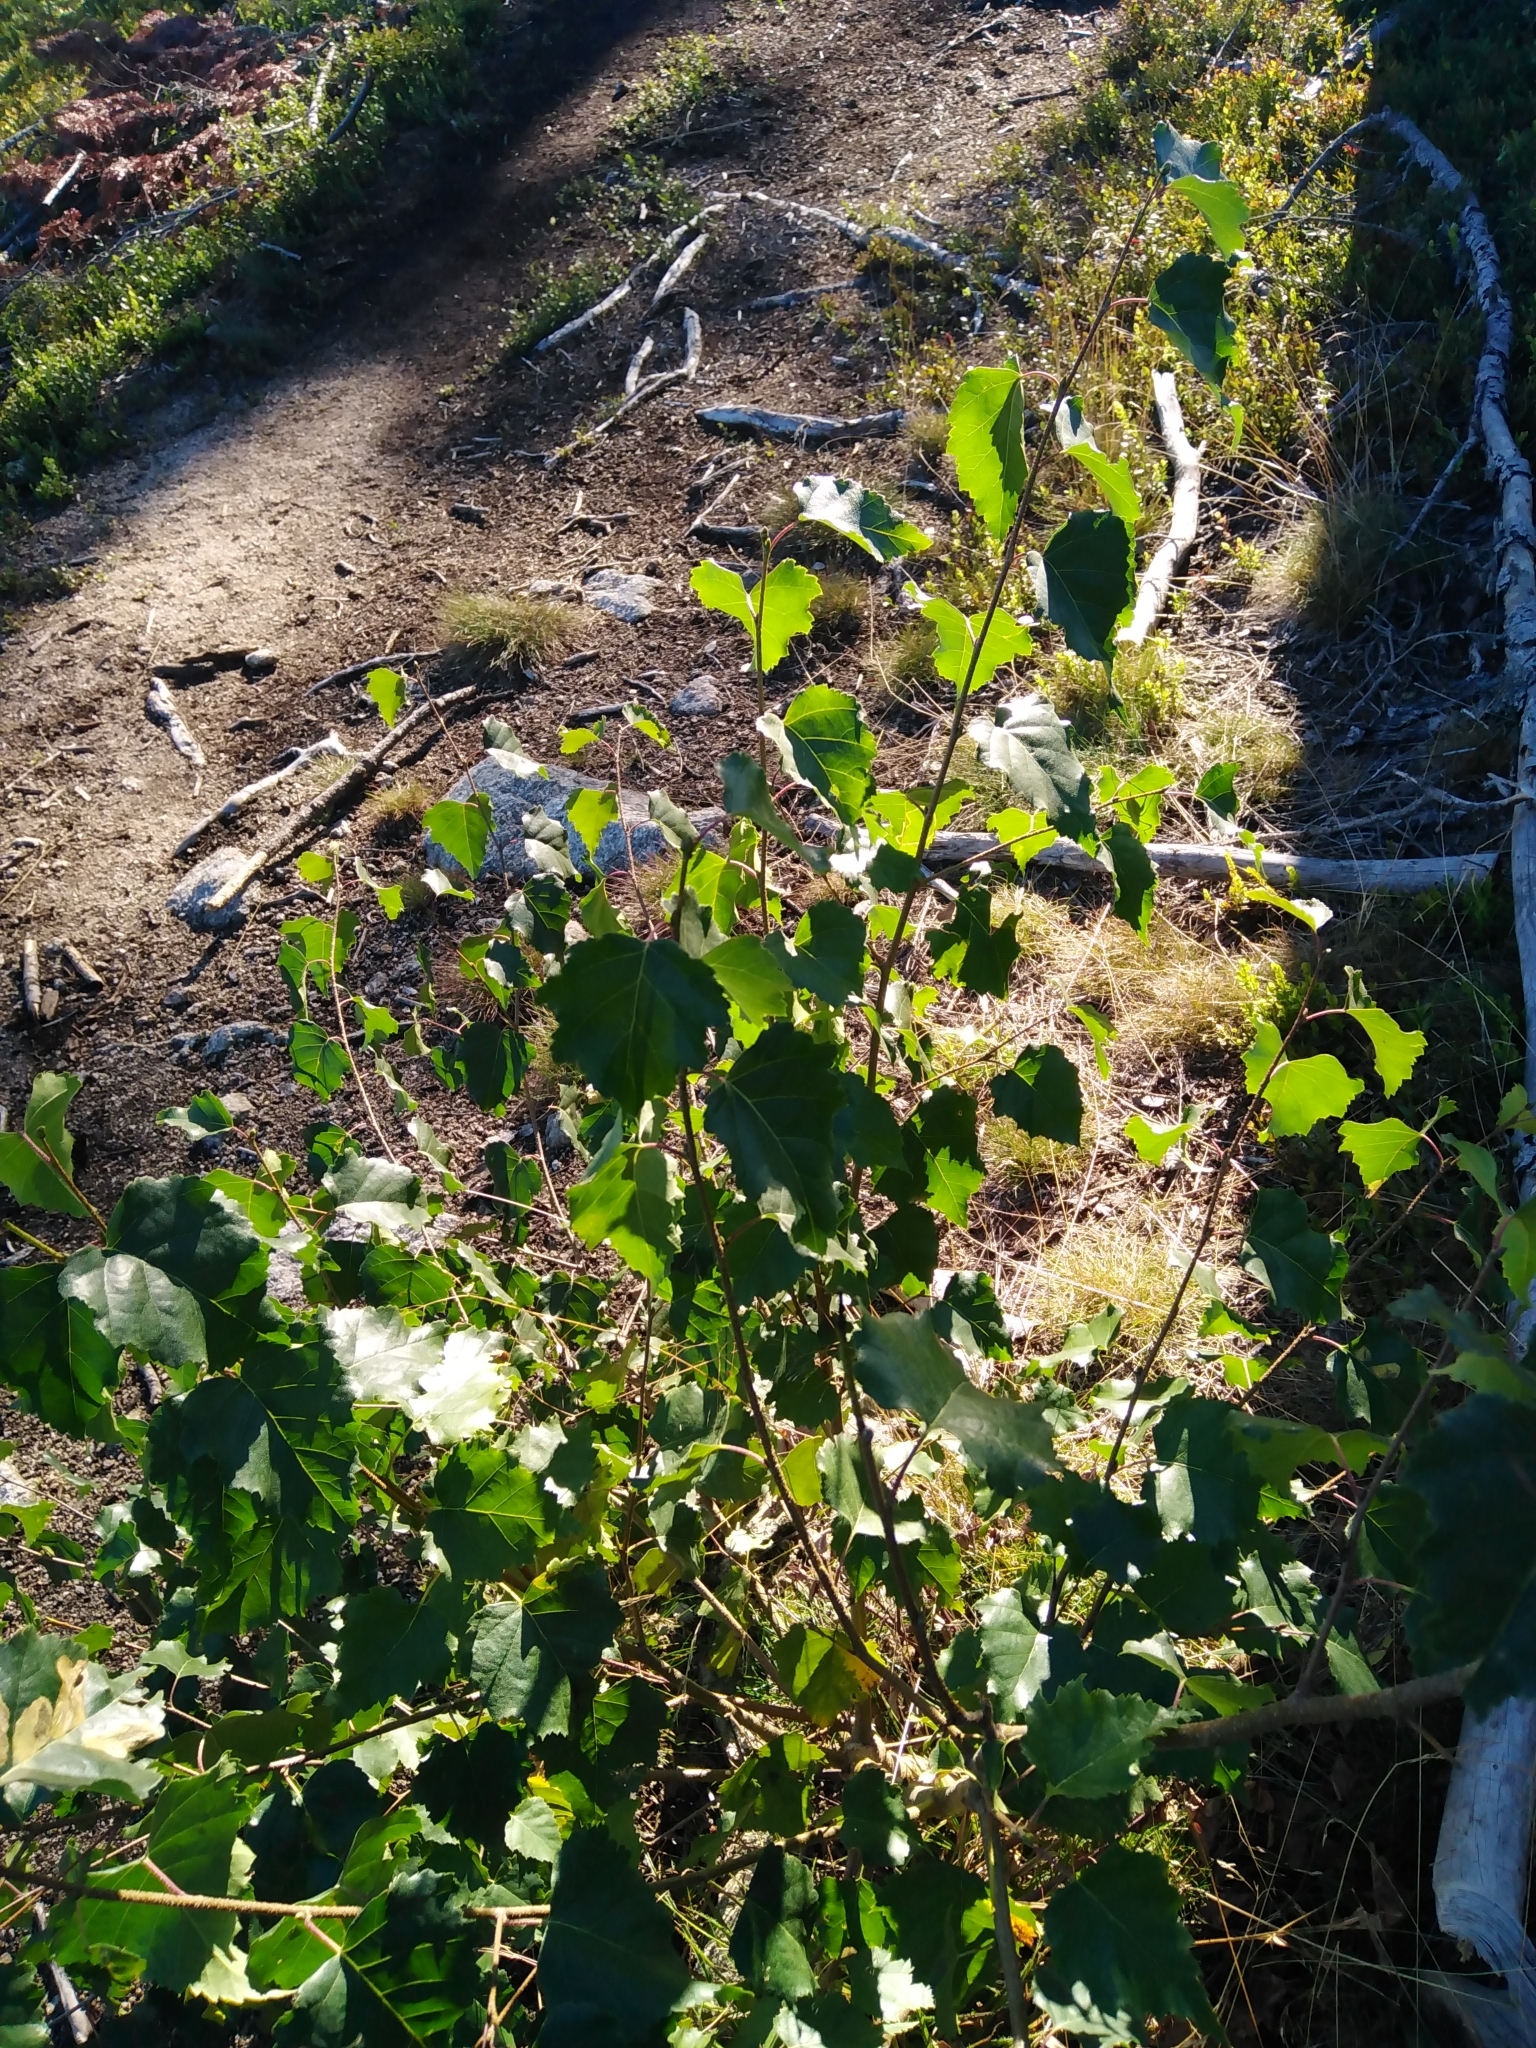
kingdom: Plantae
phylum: Tracheophyta
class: Magnoliopsida
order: Fagales
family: Betulaceae
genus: Betula
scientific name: Betula pendula
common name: Silver birch
